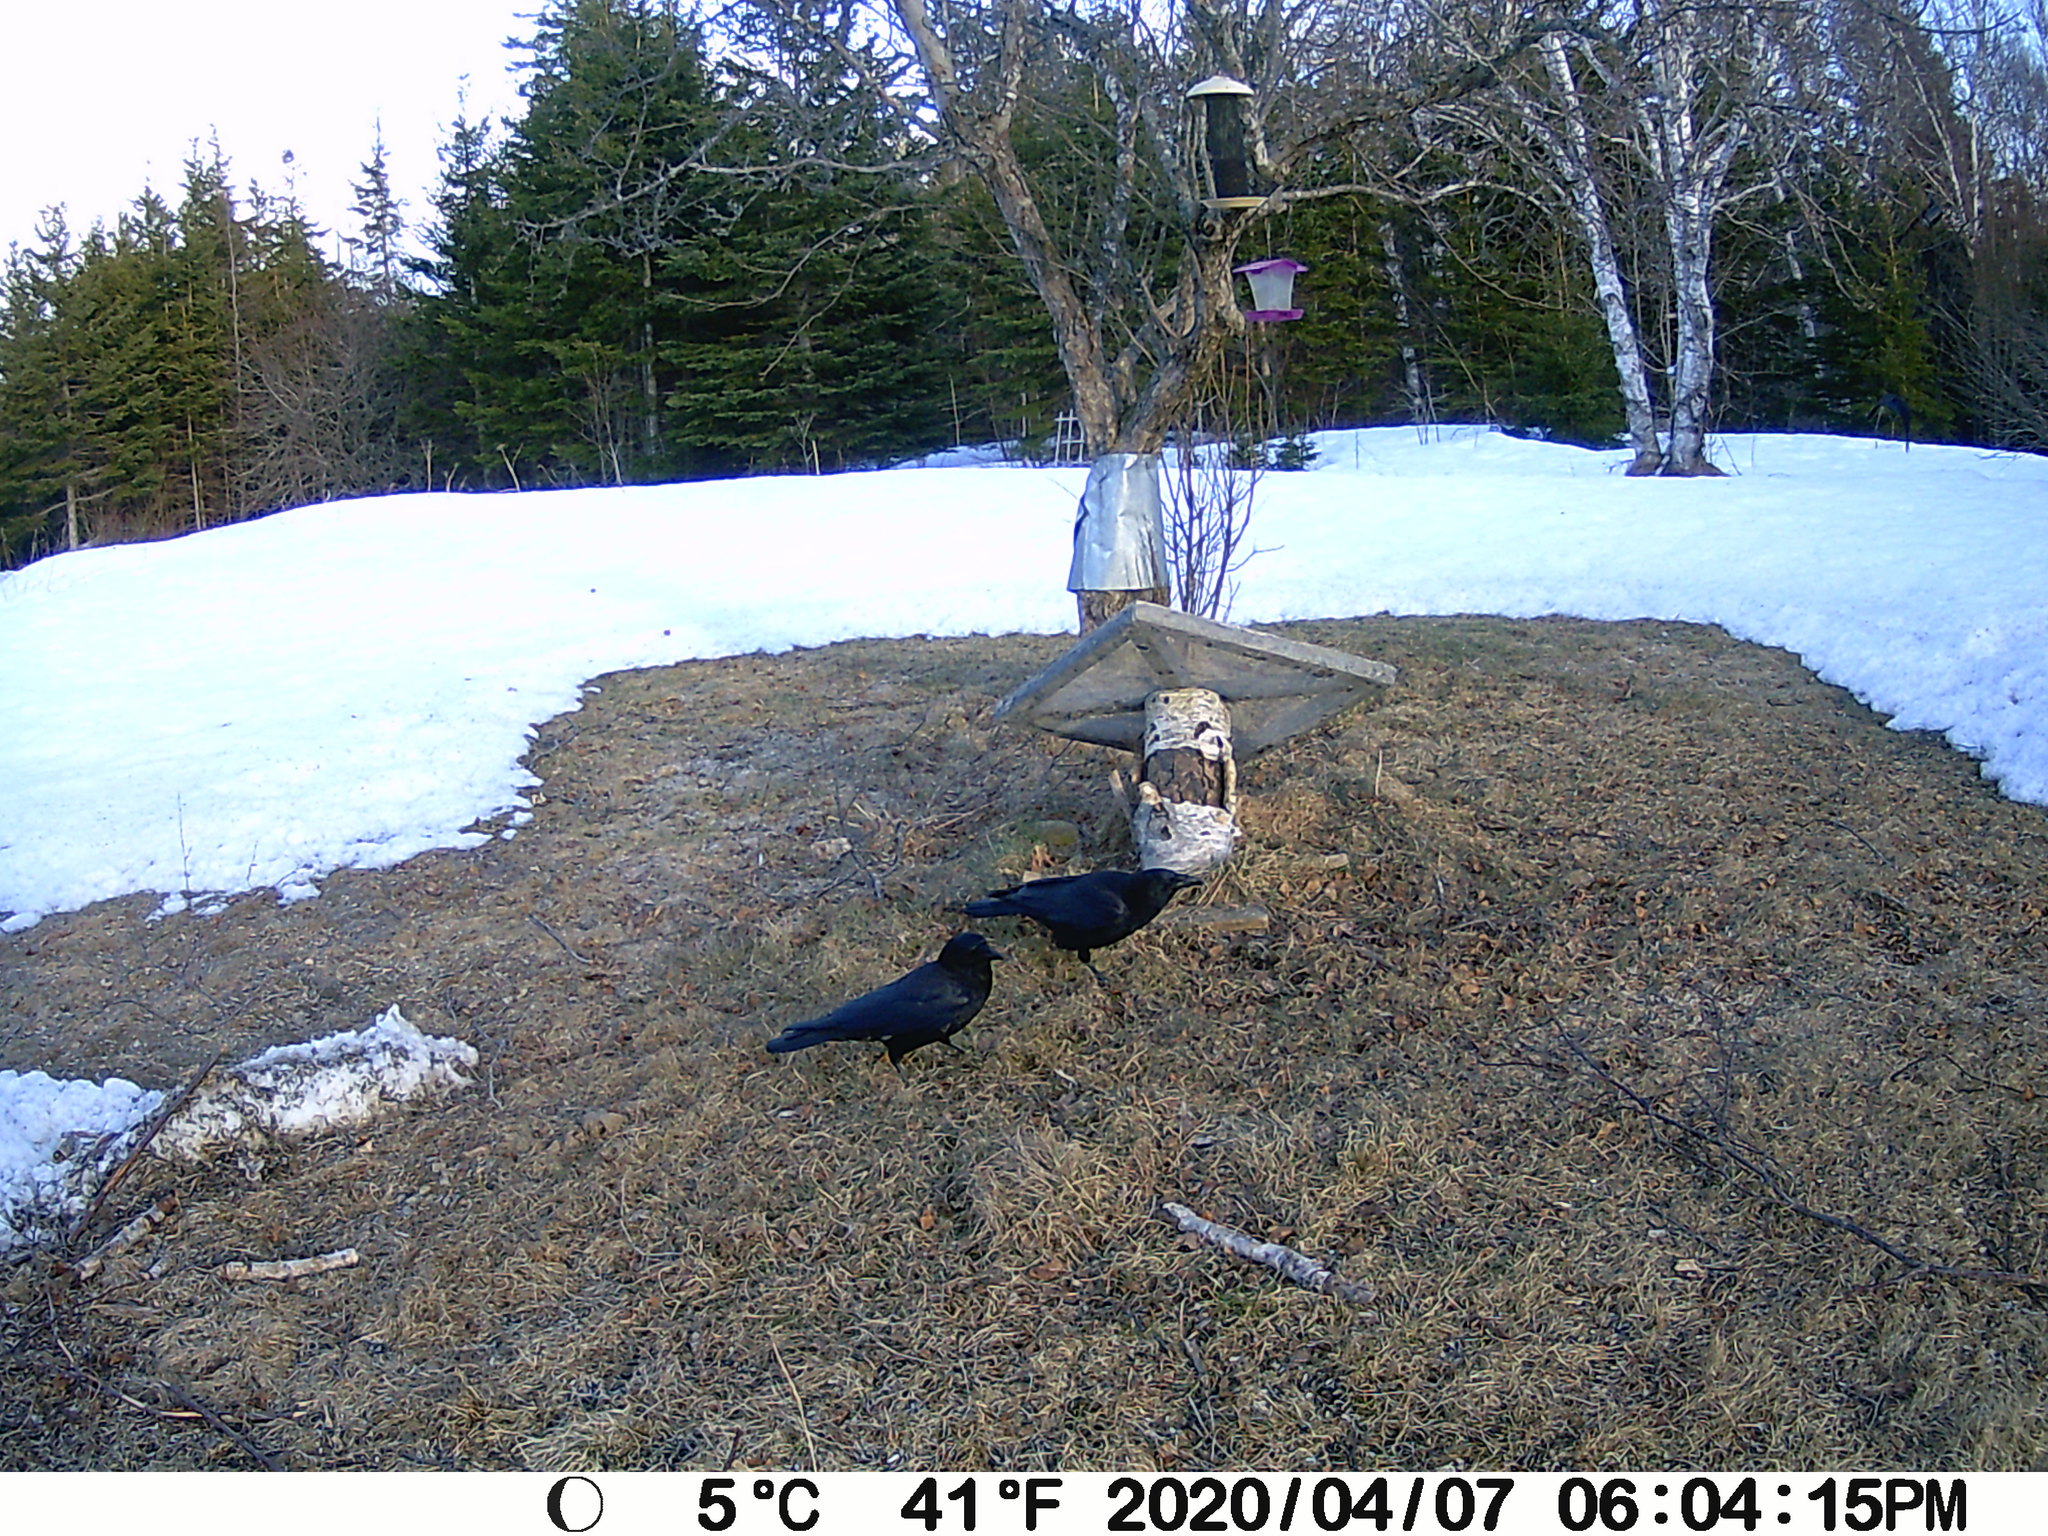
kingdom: Animalia
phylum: Chordata
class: Aves
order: Passeriformes
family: Corvidae
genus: Corvus
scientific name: Corvus brachyrhynchos
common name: American crow
